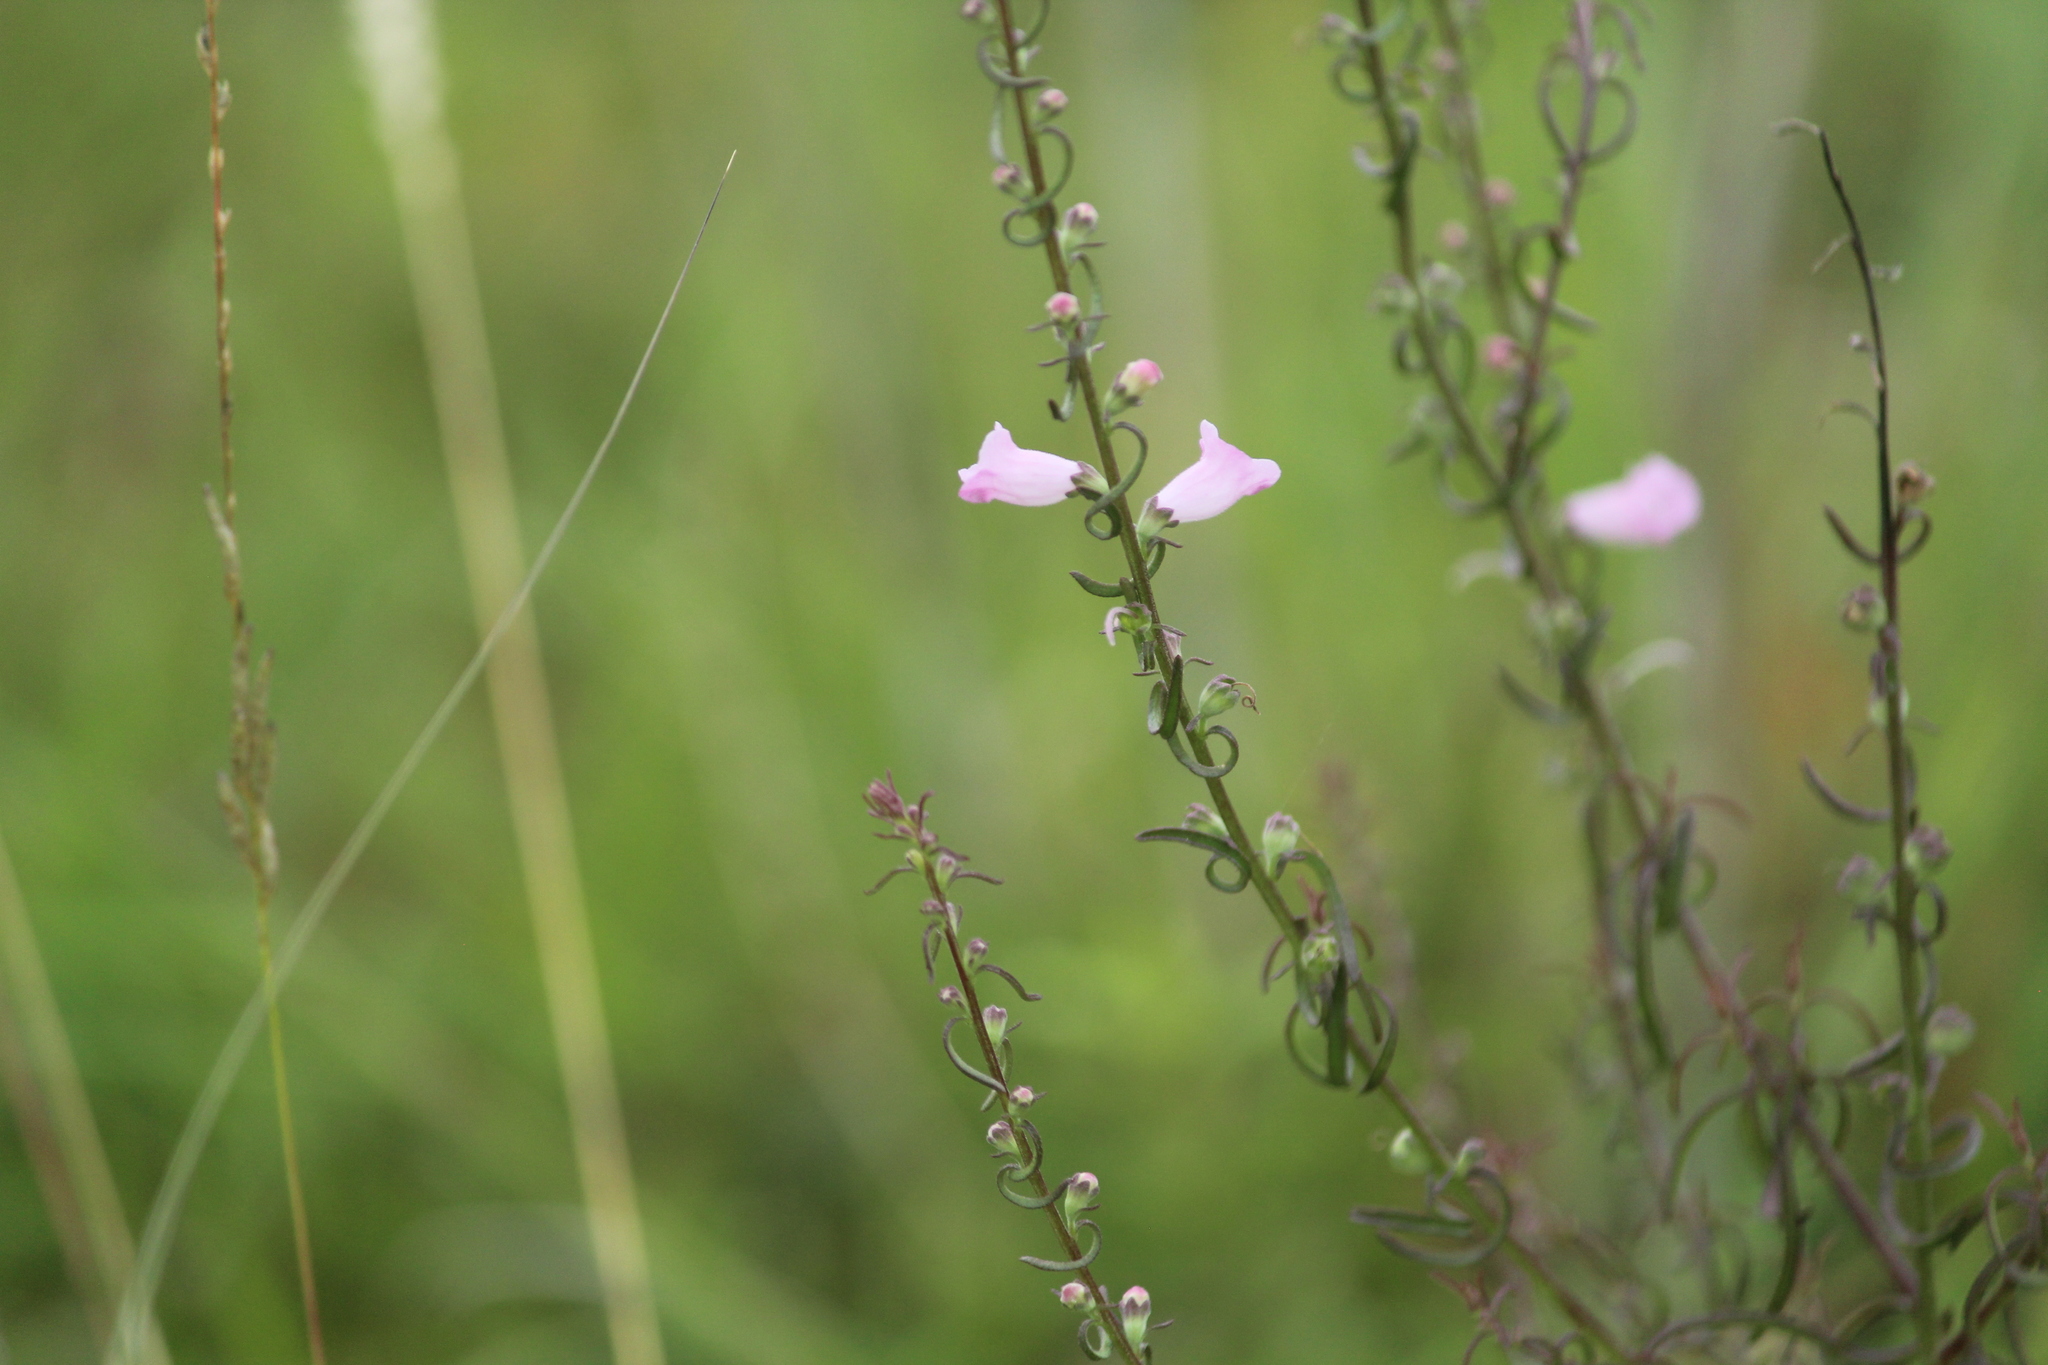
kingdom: Plantae
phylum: Tracheophyta
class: Magnoliopsida
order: Lamiales
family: Orobanchaceae
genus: Micrargeria
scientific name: Micrargeria wightii
